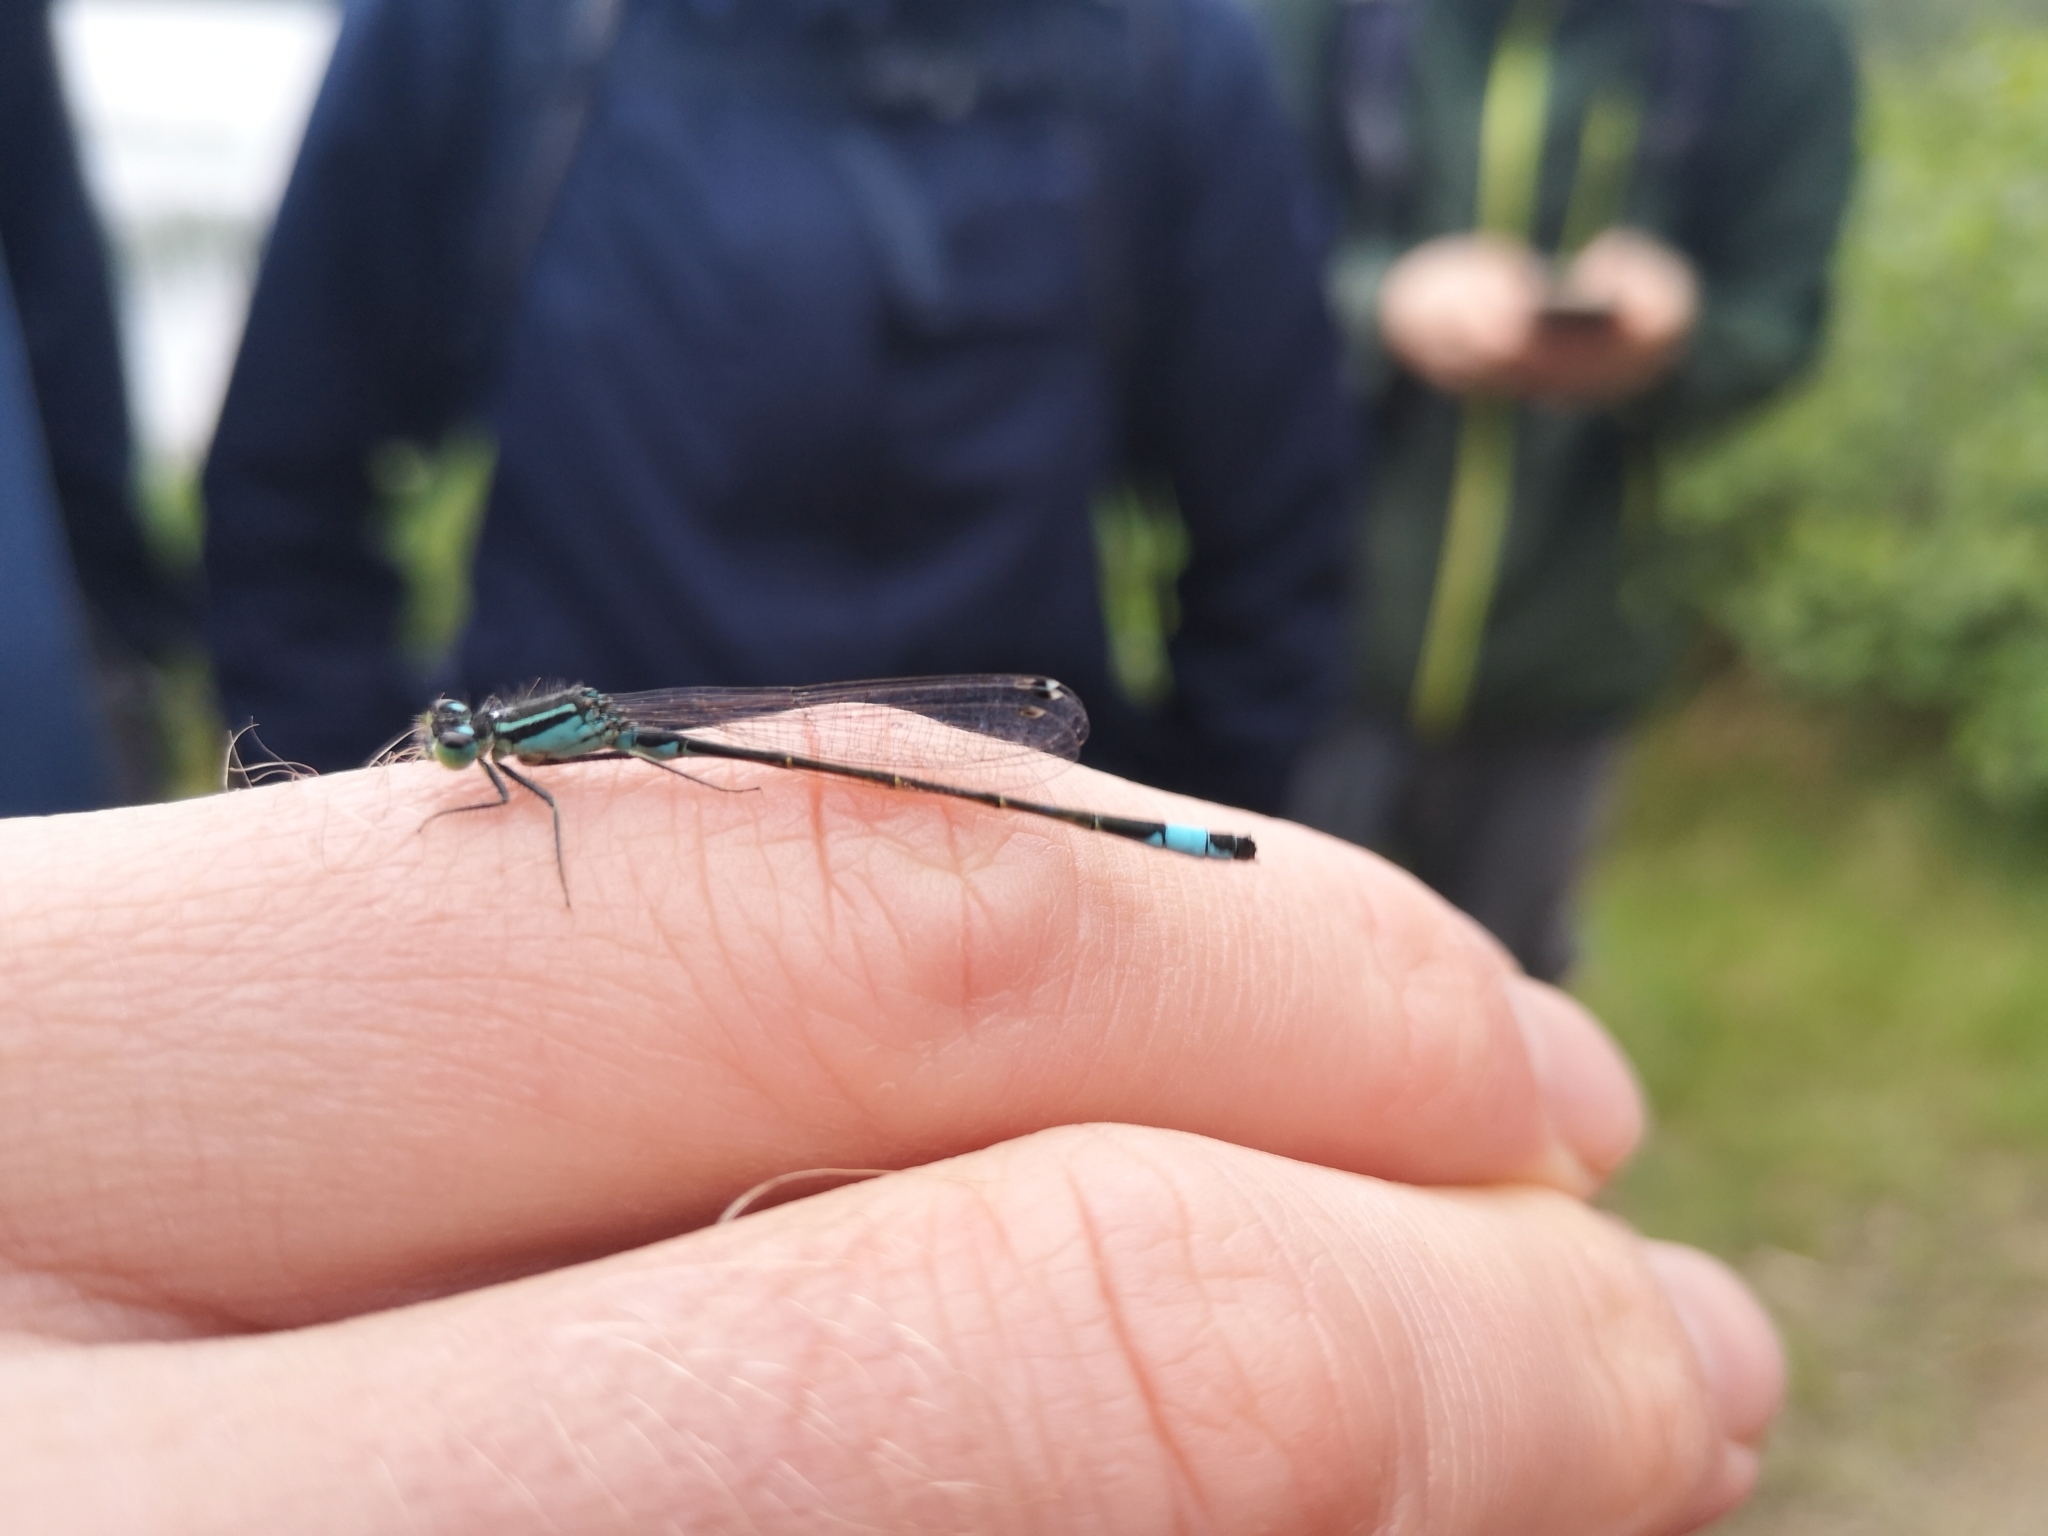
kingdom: Animalia
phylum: Arthropoda
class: Insecta
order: Odonata
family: Coenagrionidae
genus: Ischnura
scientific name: Ischnura elegans
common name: Blue-tailed damselfly
